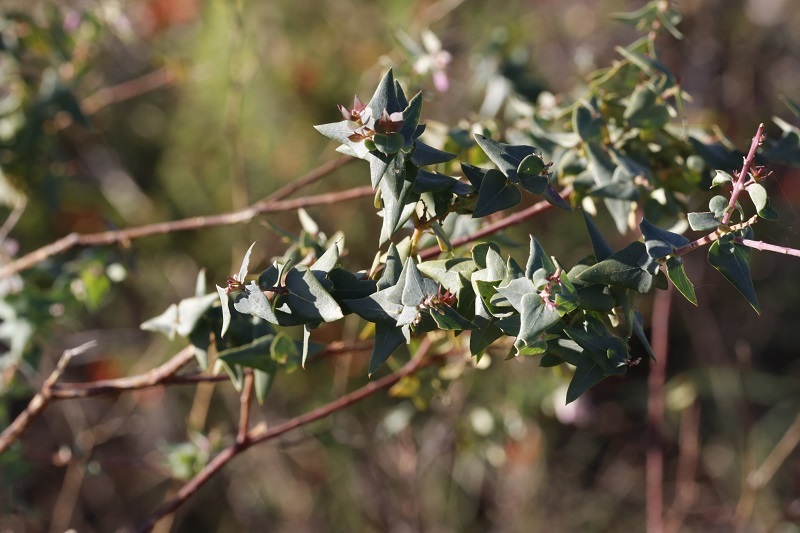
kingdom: Plantae
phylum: Tracheophyta
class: Magnoliopsida
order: Fabales
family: Polygalaceae
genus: Polygala
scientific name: Polygala fruticosa
